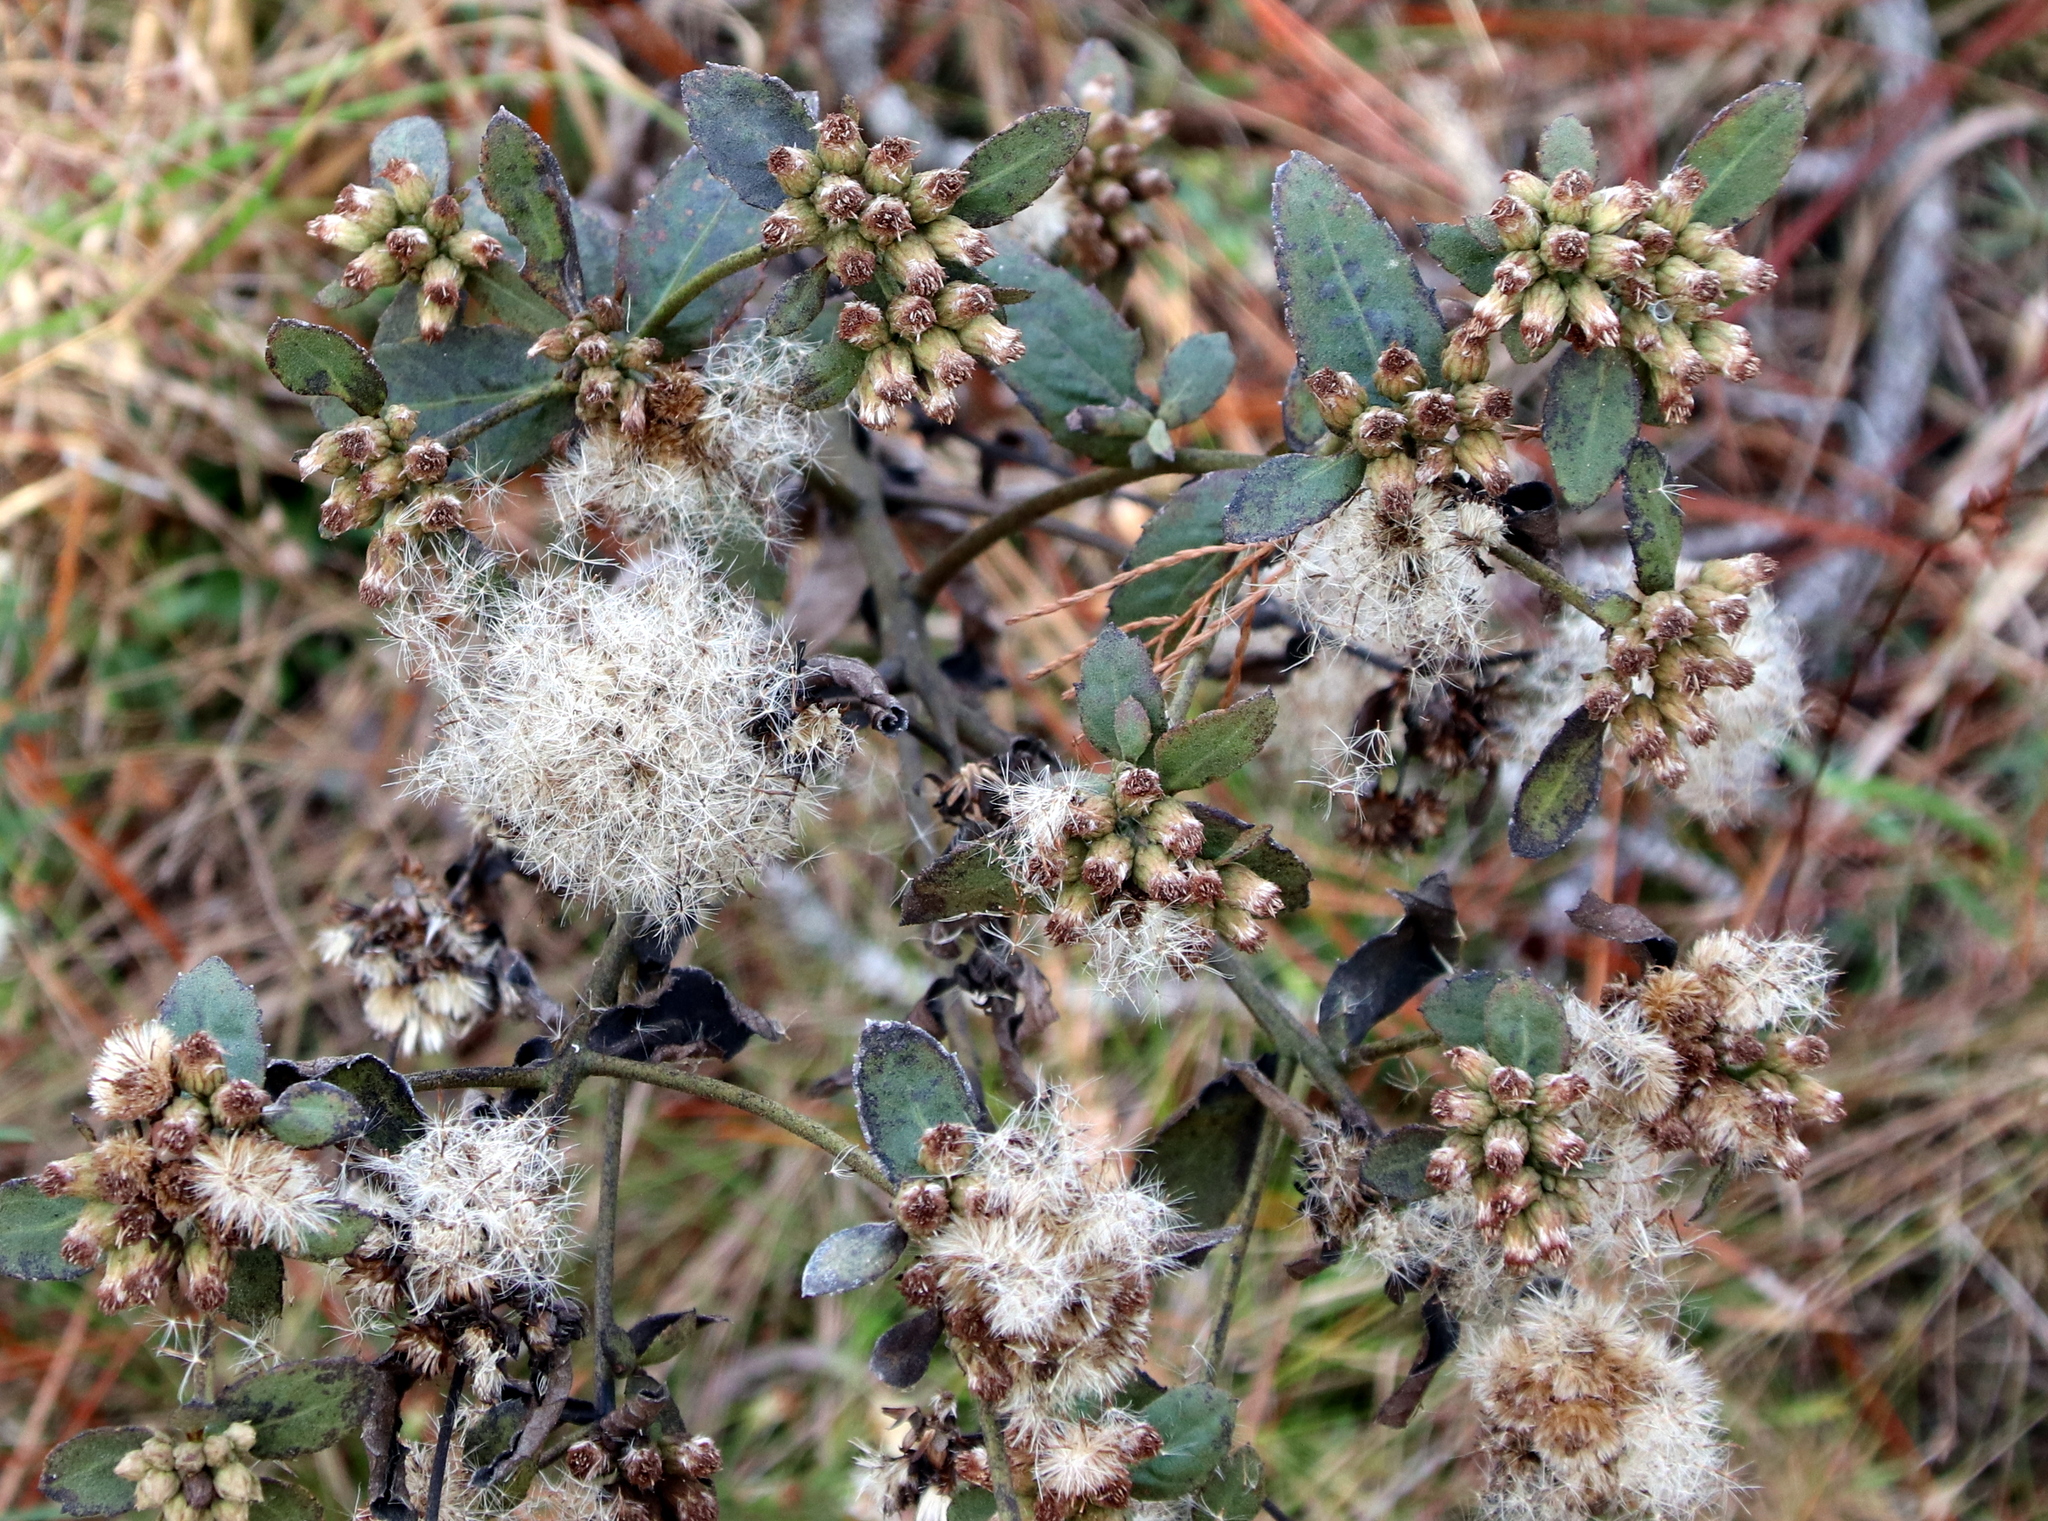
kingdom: Plantae
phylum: Tracheophyta
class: Magnoliopsida
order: Asterales
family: Asteraceae
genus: Pluchea
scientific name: Pluchea foetida
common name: Stinking camphorweed
